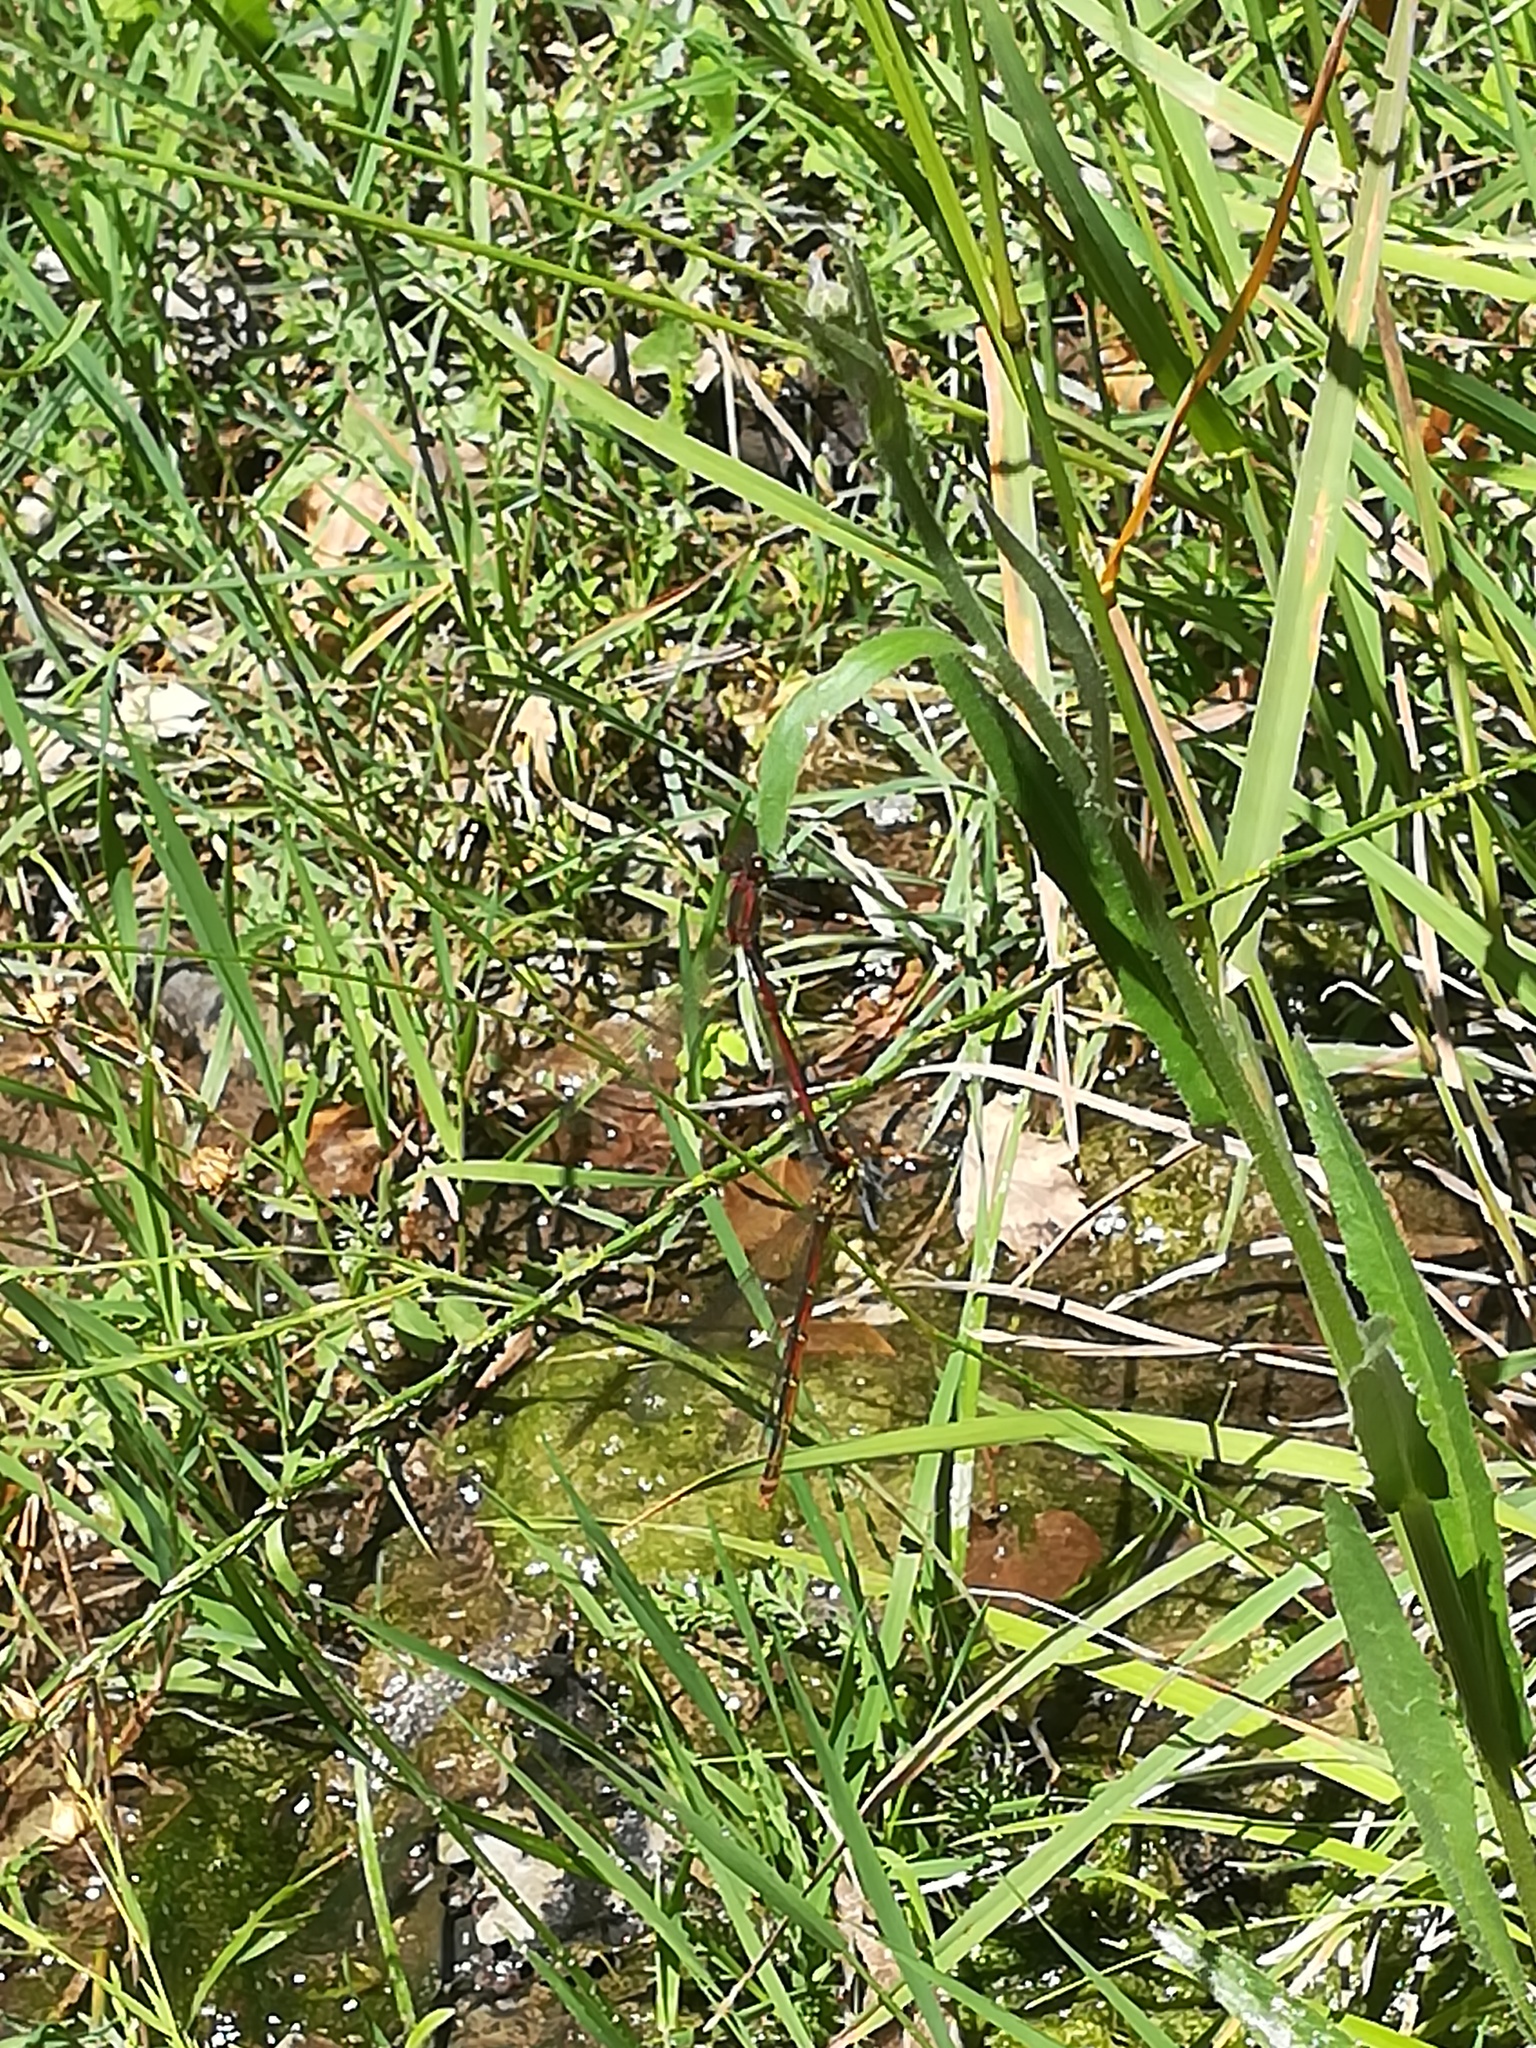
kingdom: Animalia
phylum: Arthropoda
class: Insecta
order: Odonata
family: Coenagrionidae
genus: Pyrrhosoma
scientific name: Pyrrhosoma nymphula
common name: Large red damsel
